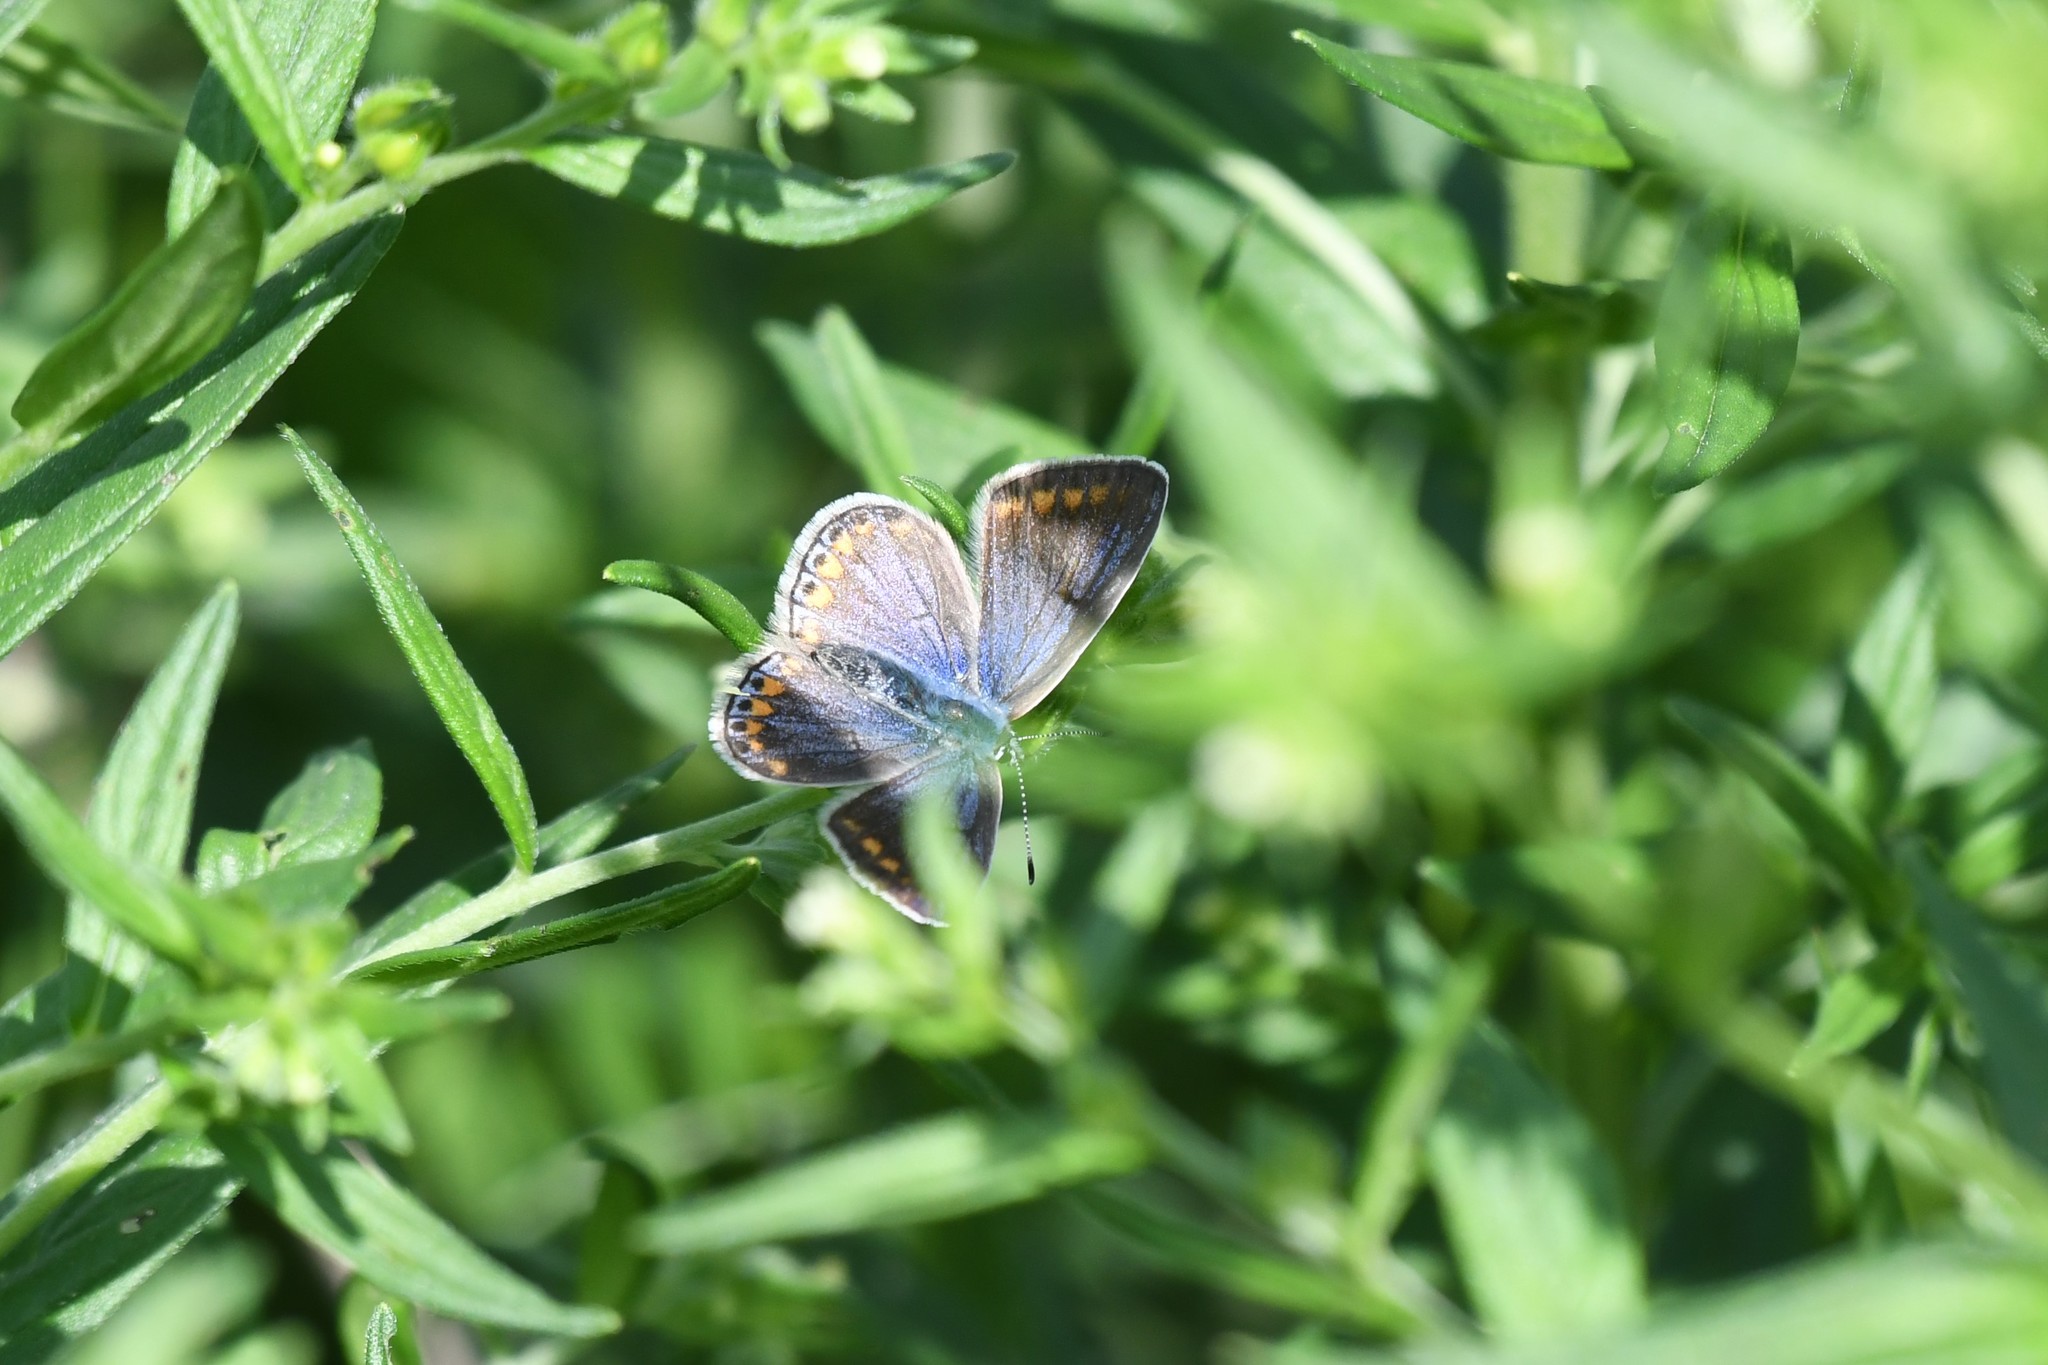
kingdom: Animalia
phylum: Arthropoda
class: Insecta
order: Lepidoptera
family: Lycaenidae
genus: Polyommatus
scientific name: Polyommatus icarus
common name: Common blue
